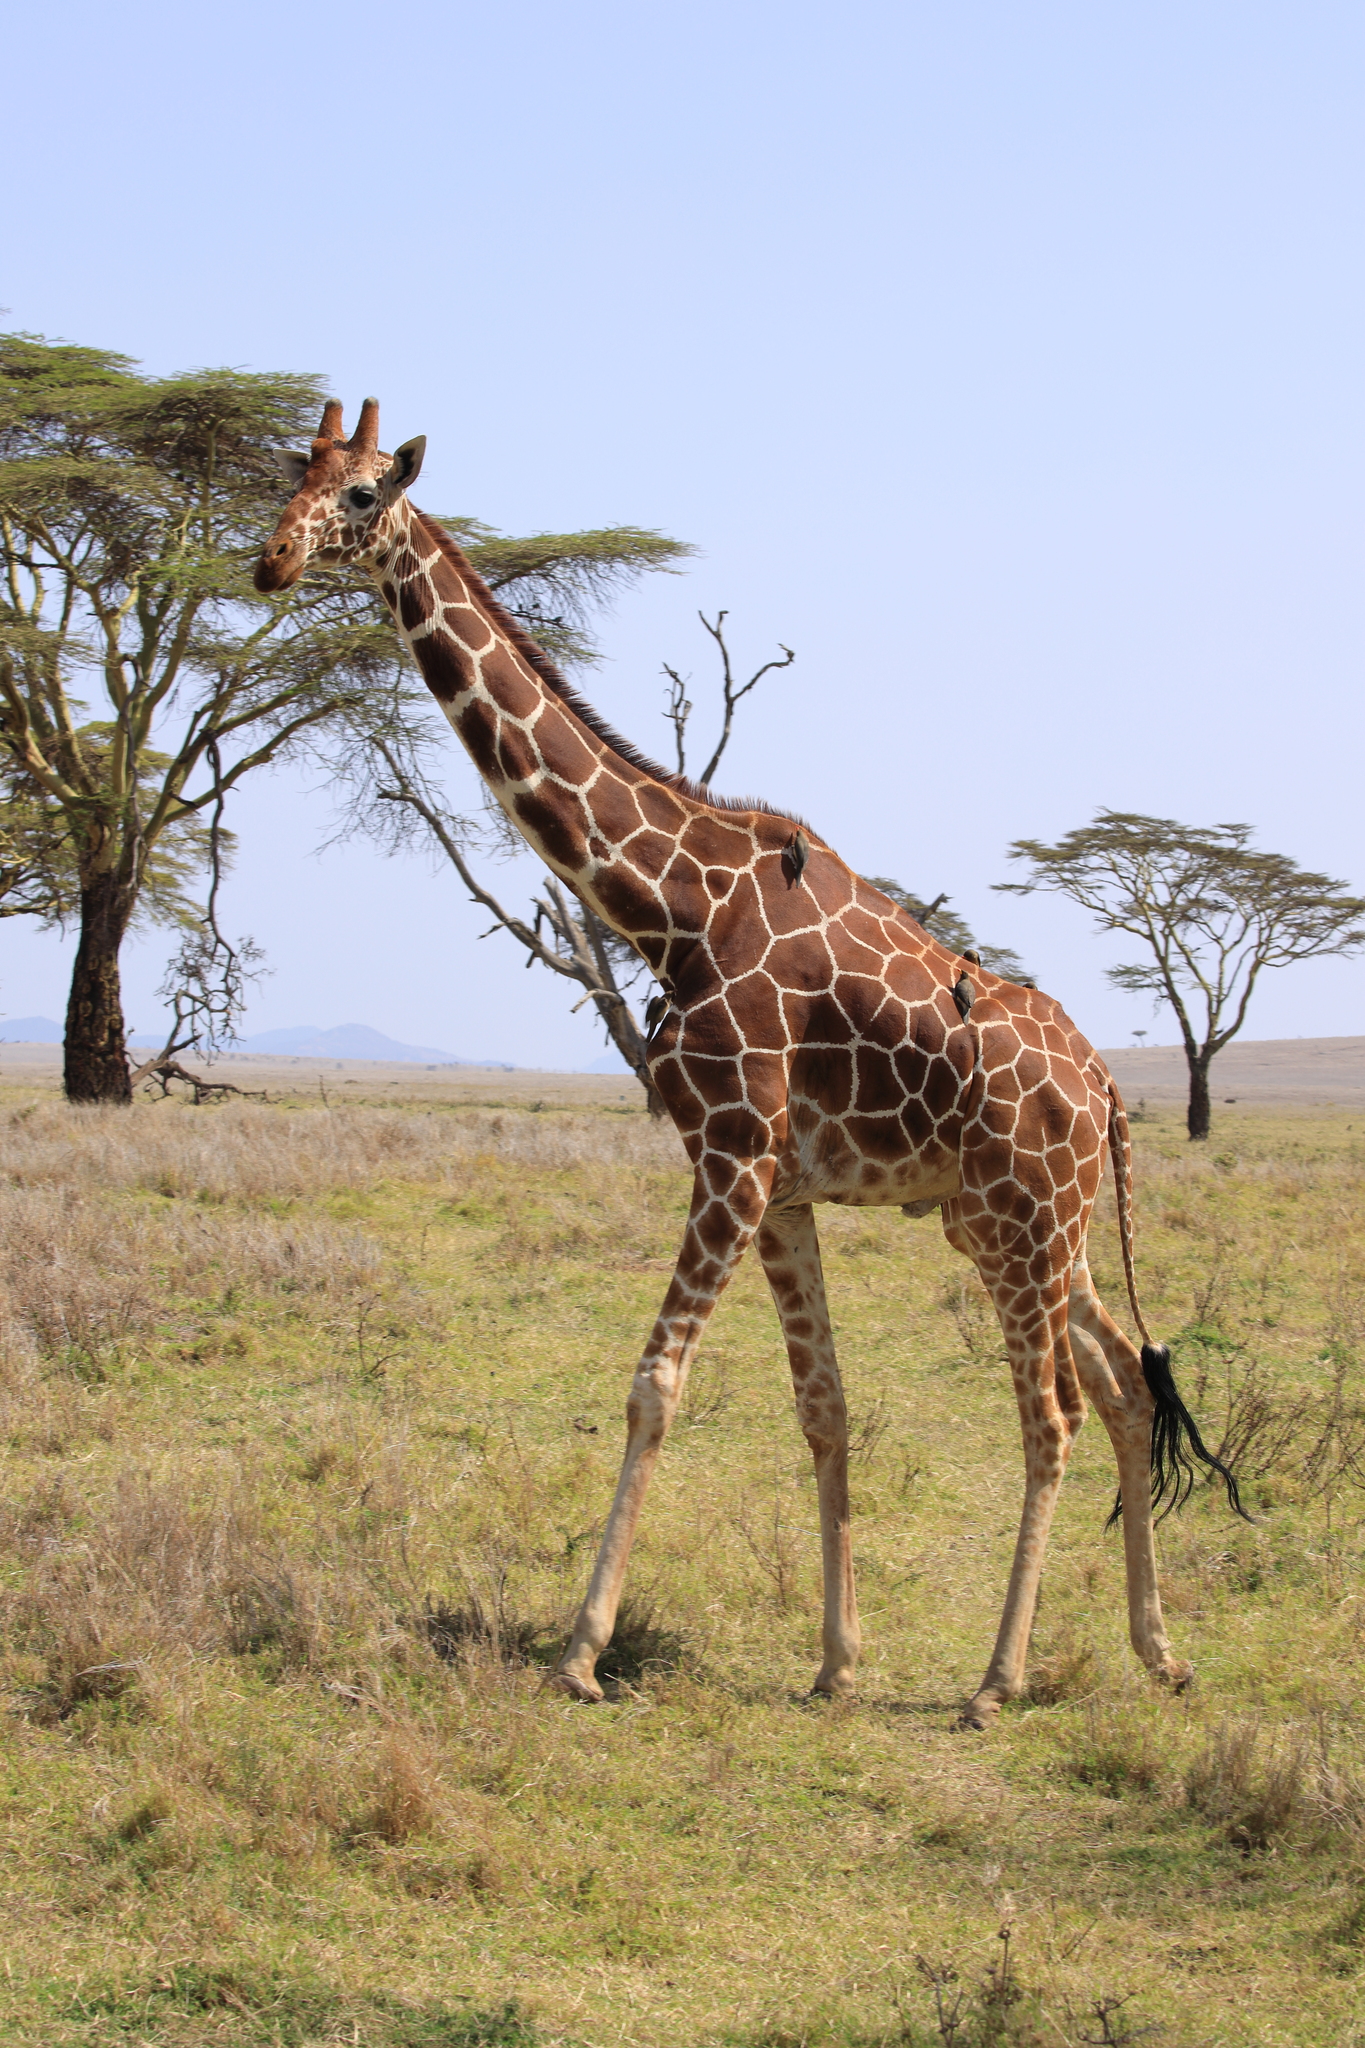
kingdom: Animalia
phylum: Chordata
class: Mammalia
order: Artiodactyla
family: Giraffidae
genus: Giraffa
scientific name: Giraffa reticulata
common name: Reticulated giraffe
